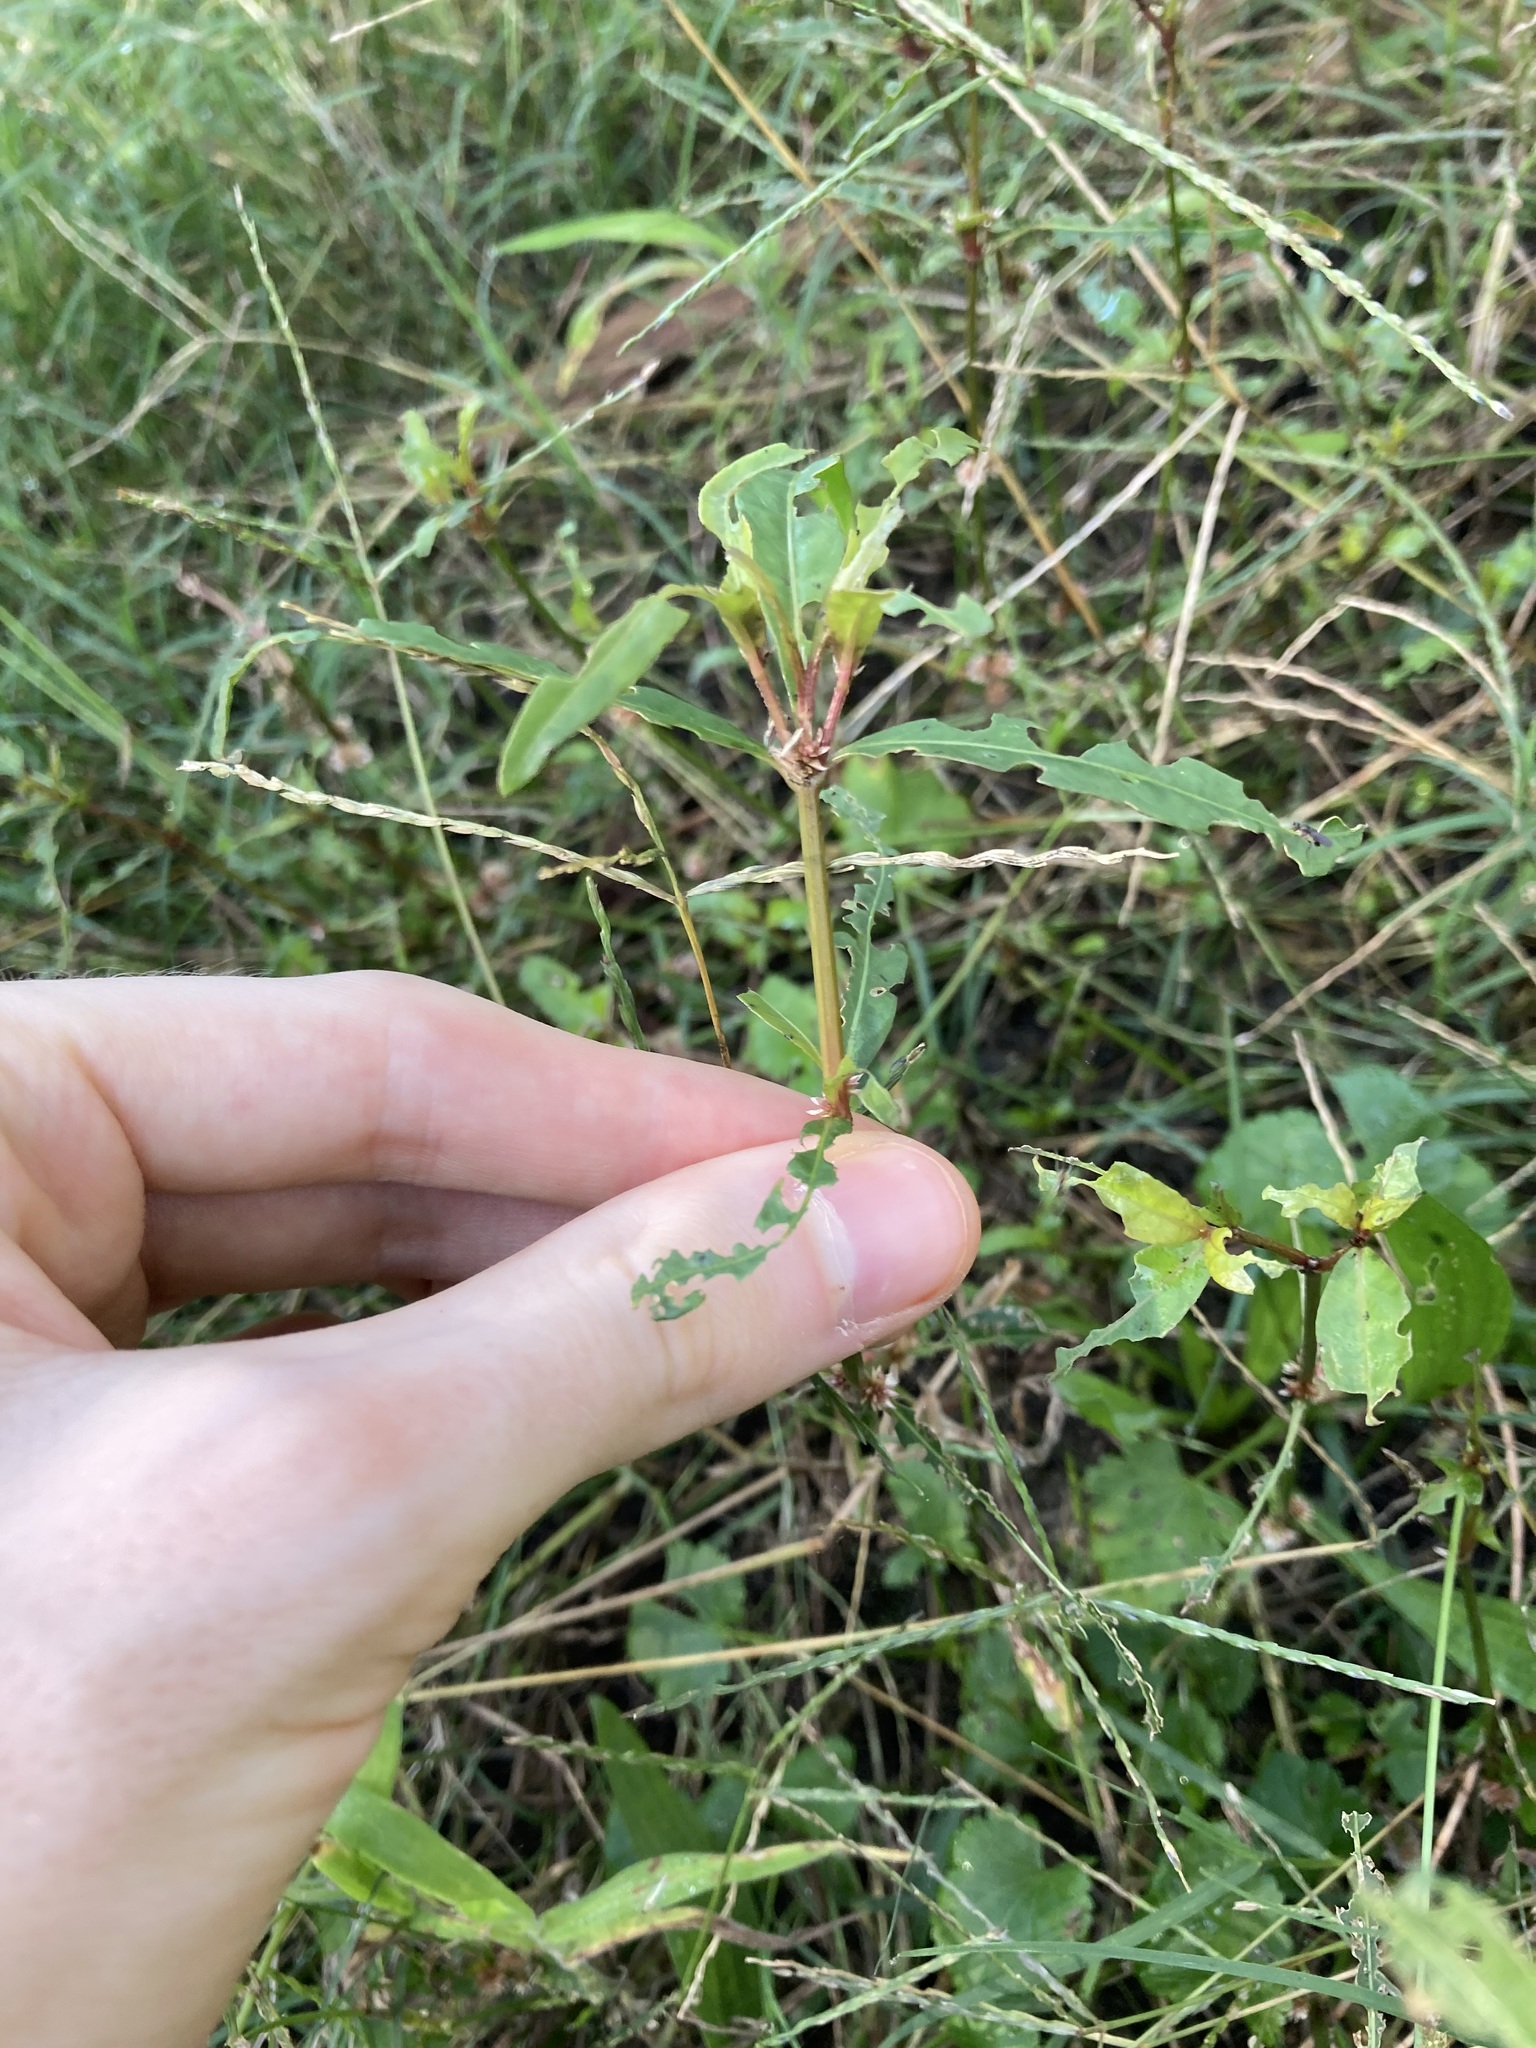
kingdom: Plantae
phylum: Tracheophyta
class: Magnoliopsida
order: Caryophyllales
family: Amaranthaceae
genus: Alternanthera
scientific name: Alternanthera denticulata
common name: Lesser joyweed
